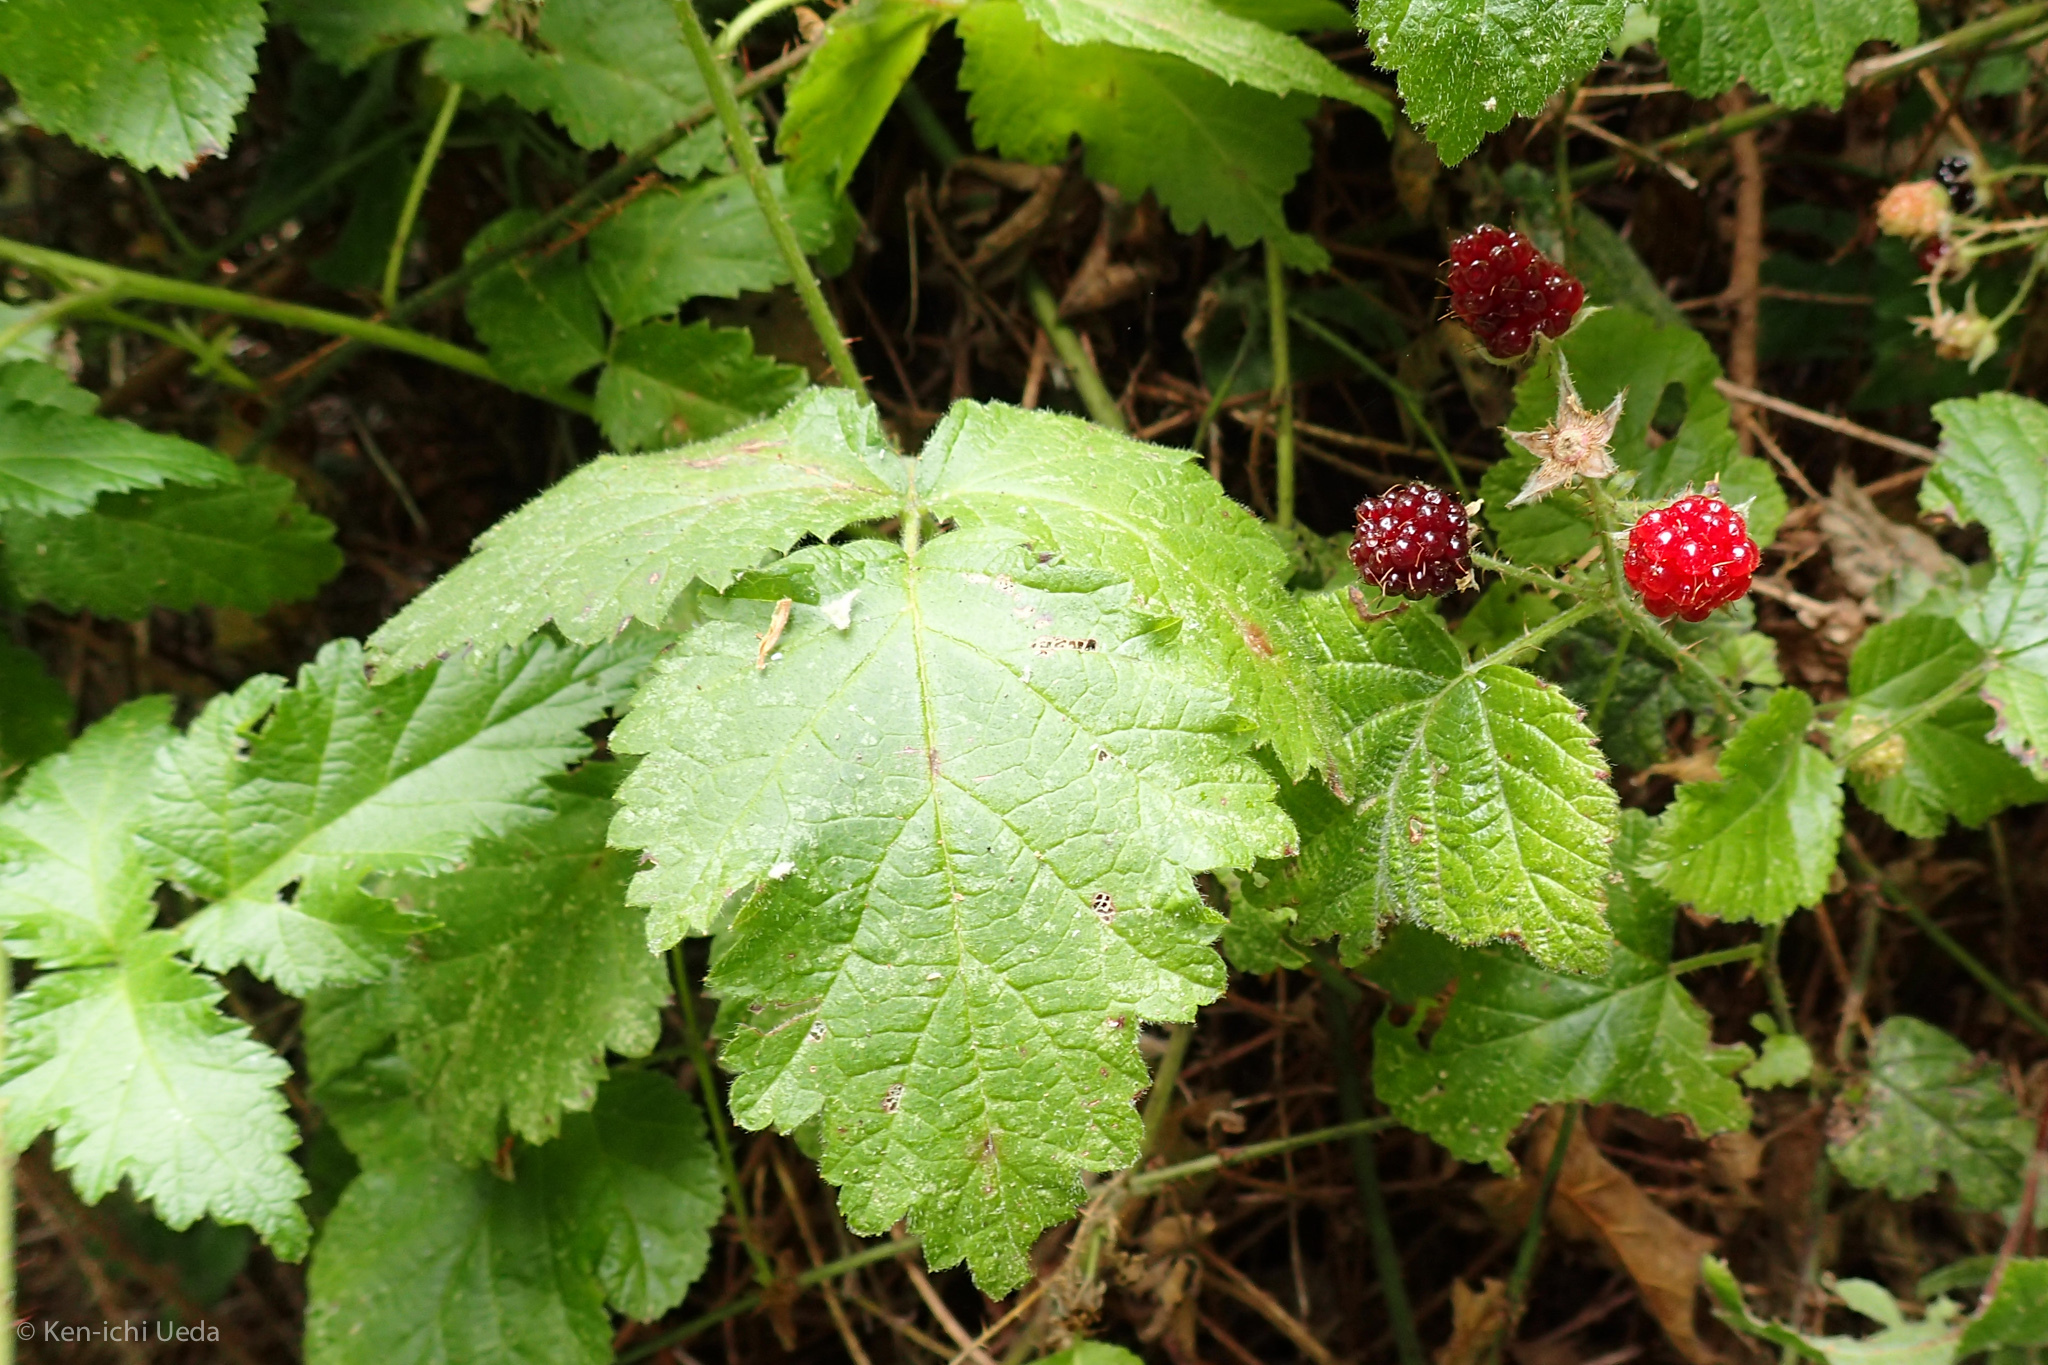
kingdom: Plantae
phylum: Tracheophyta
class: Magnoliopsida
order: Rosales
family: Rosaceae
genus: Rubus
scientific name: Rubus ursinus
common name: Pacific blackberry
